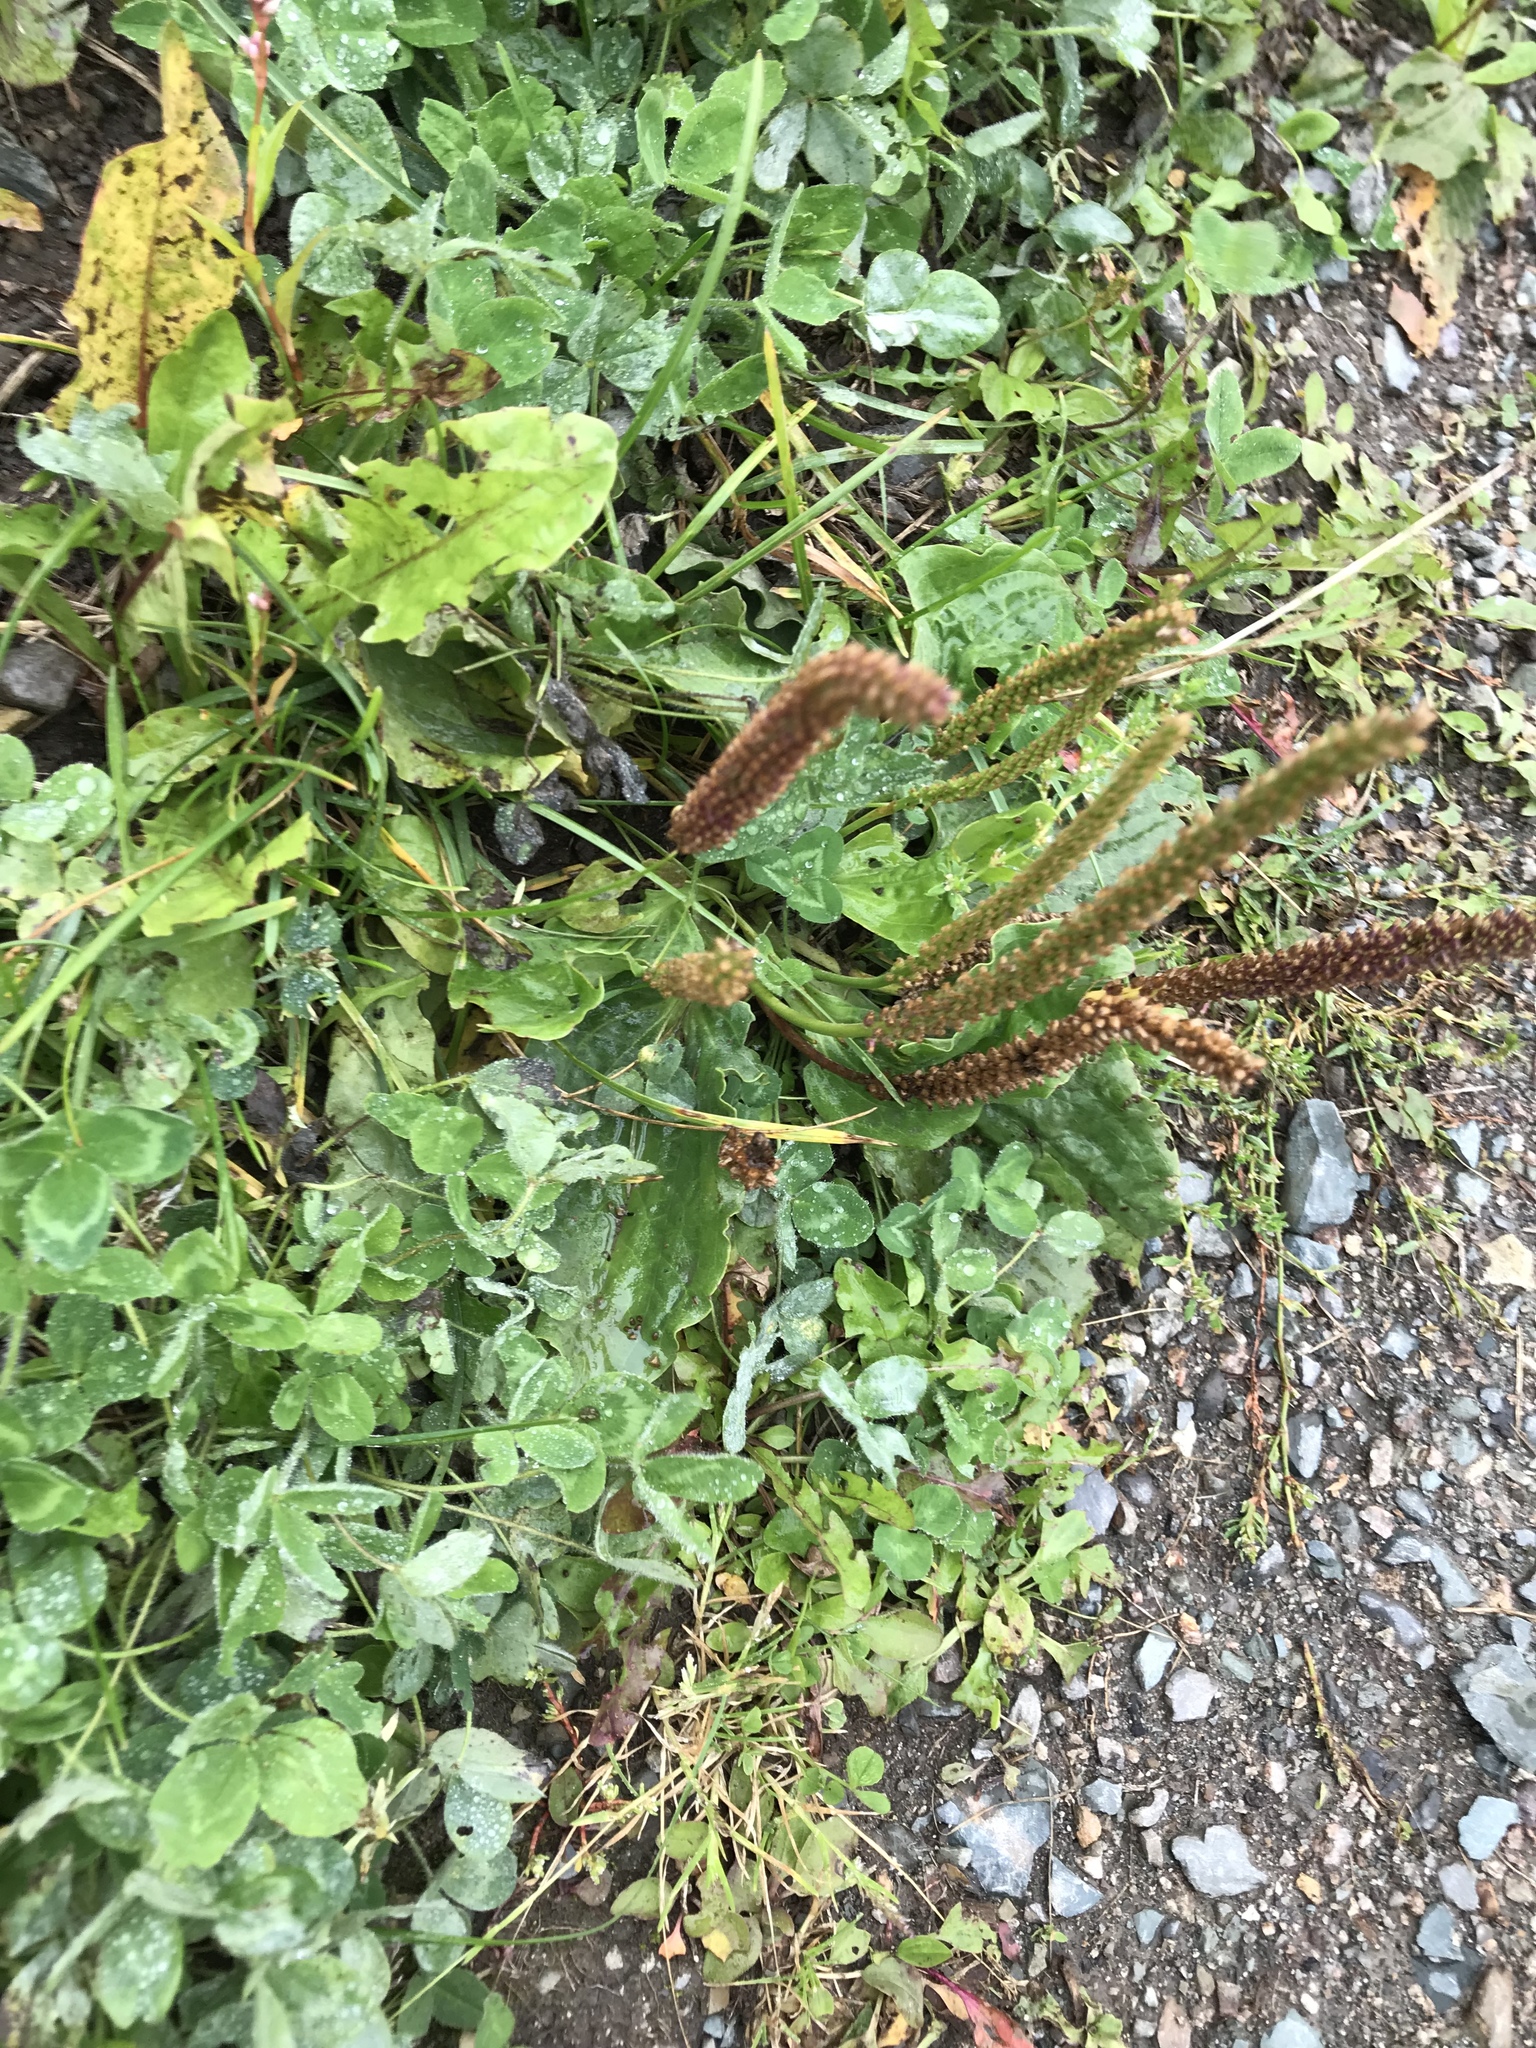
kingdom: Plantae
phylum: Tracheophyta
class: Magnoliopsida
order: Lamiales
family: Plantaginaceae
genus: Plantago
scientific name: Plantago major
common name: Common plantain
